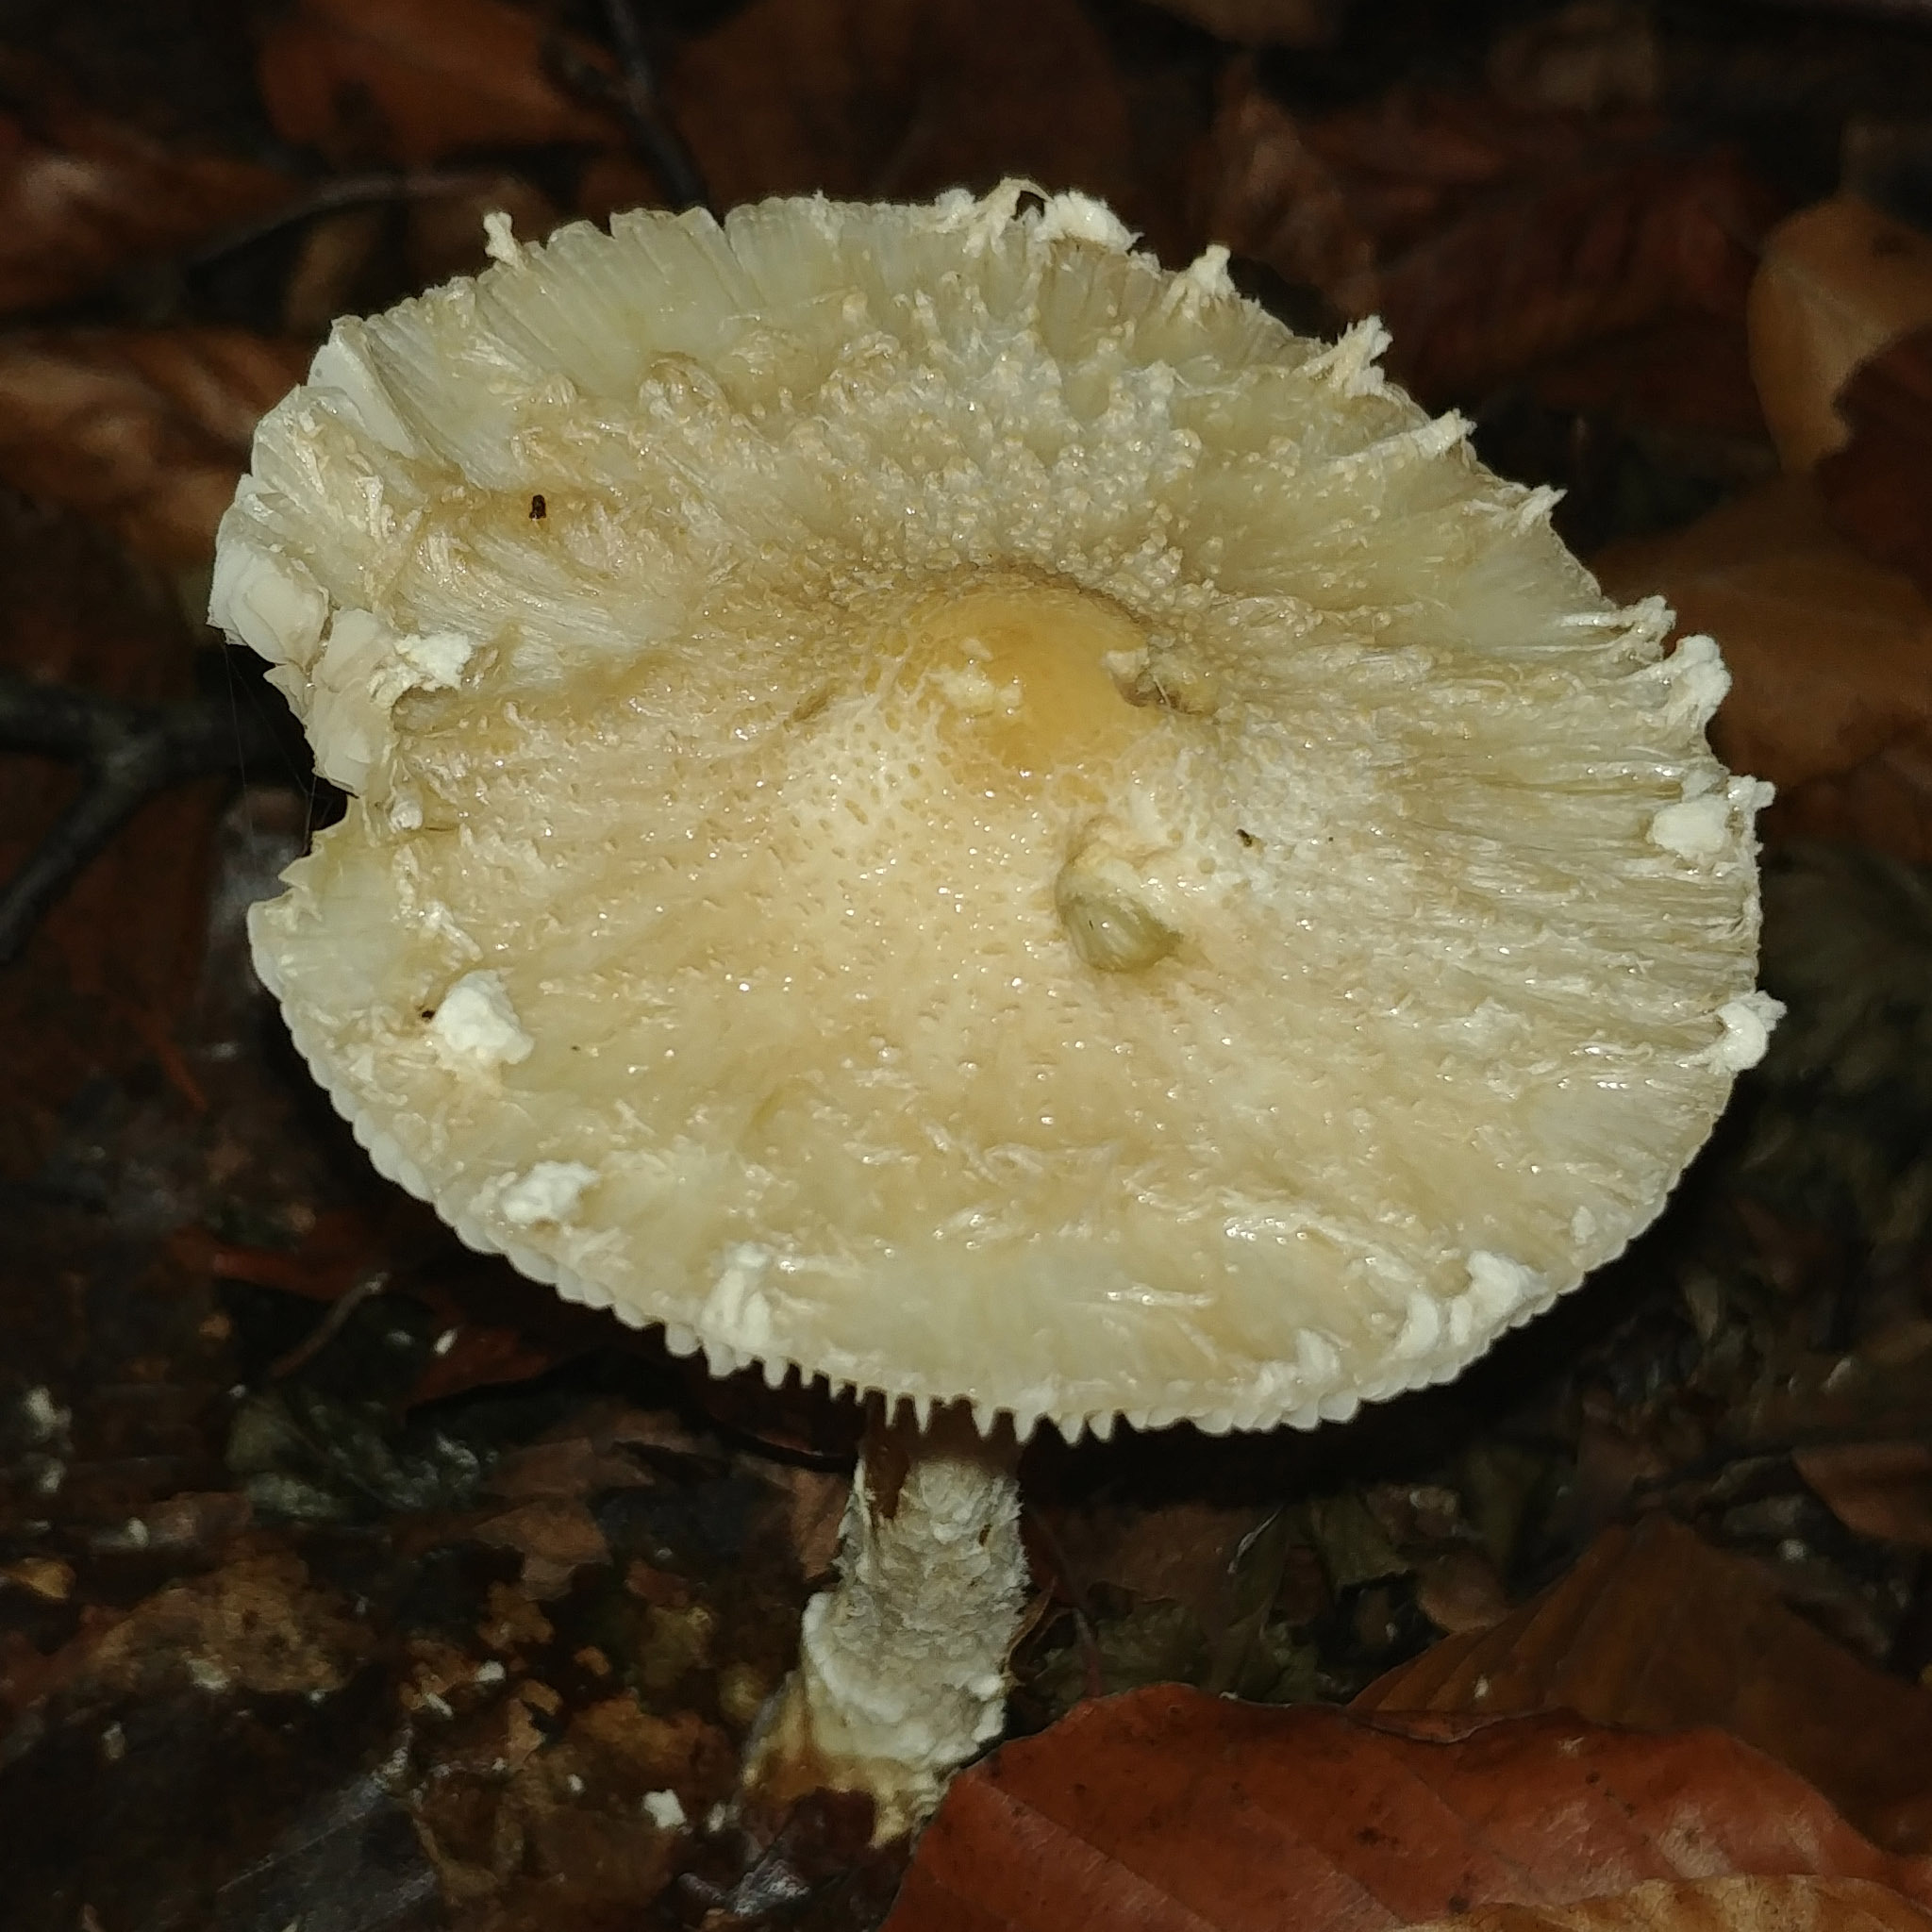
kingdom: Fungi
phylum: Basidiomycota
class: Agaricomycetes
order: Agaricales
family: Agaricaceae
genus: Lepiota
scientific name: Lepiota clypeolaria
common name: Shield dapperling
